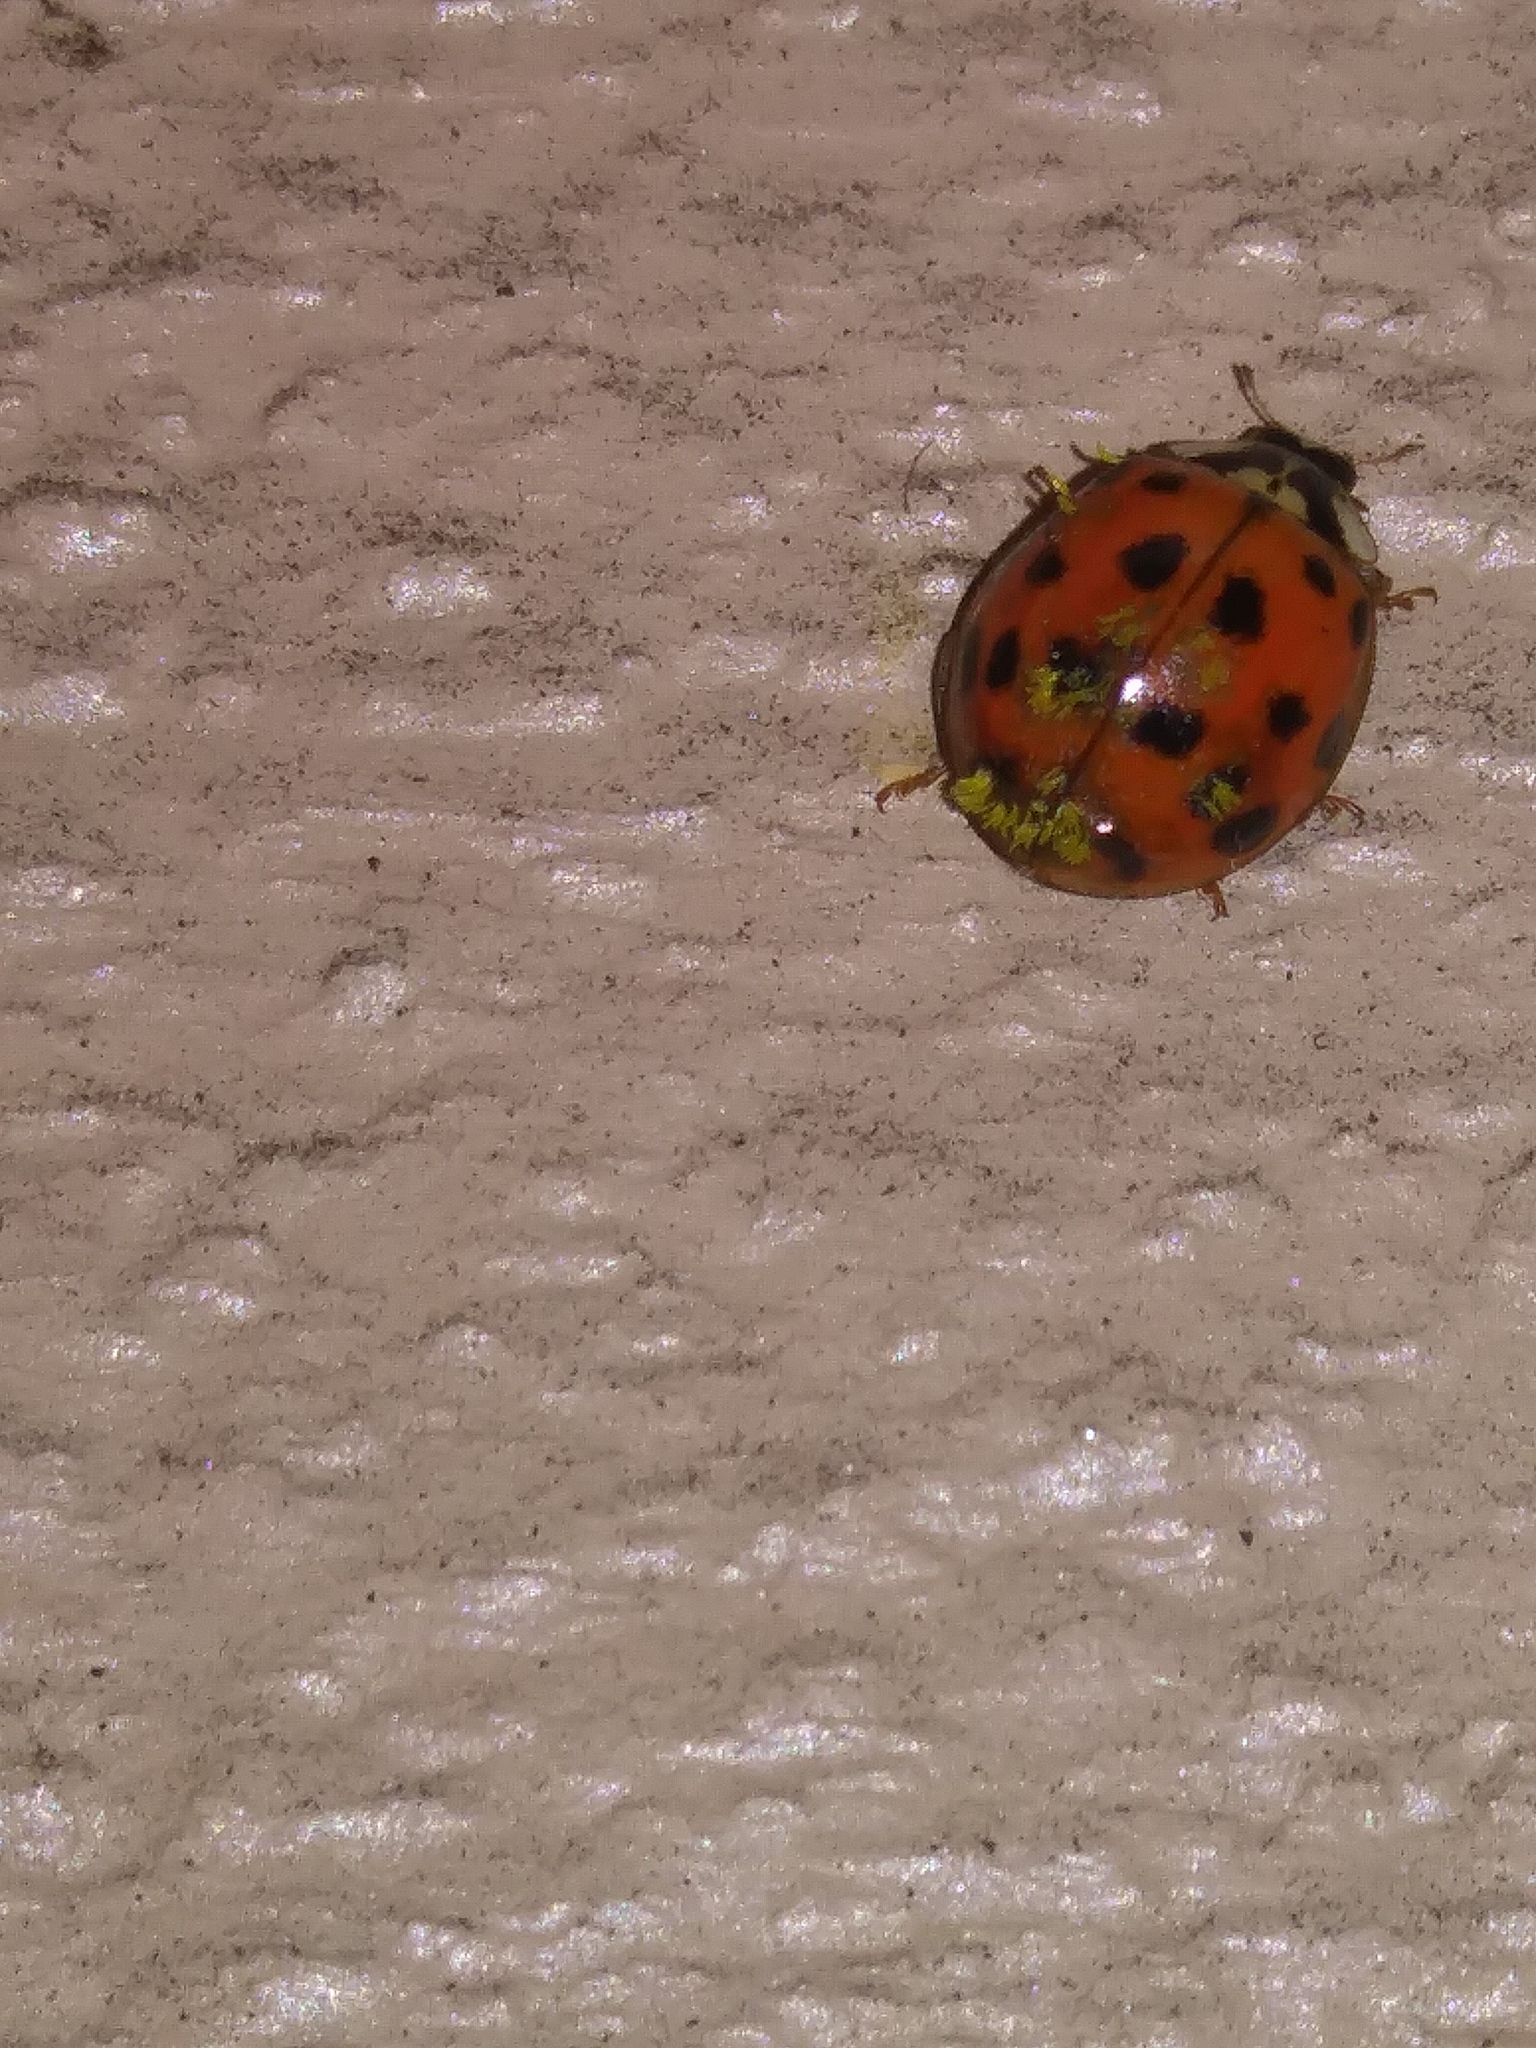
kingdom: Animalia
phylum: Arthropoda
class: Insecta
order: Coleoptera
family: Coccinellidae
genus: Harmonia
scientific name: Harmonia axyridis
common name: Harlequin ladybird
